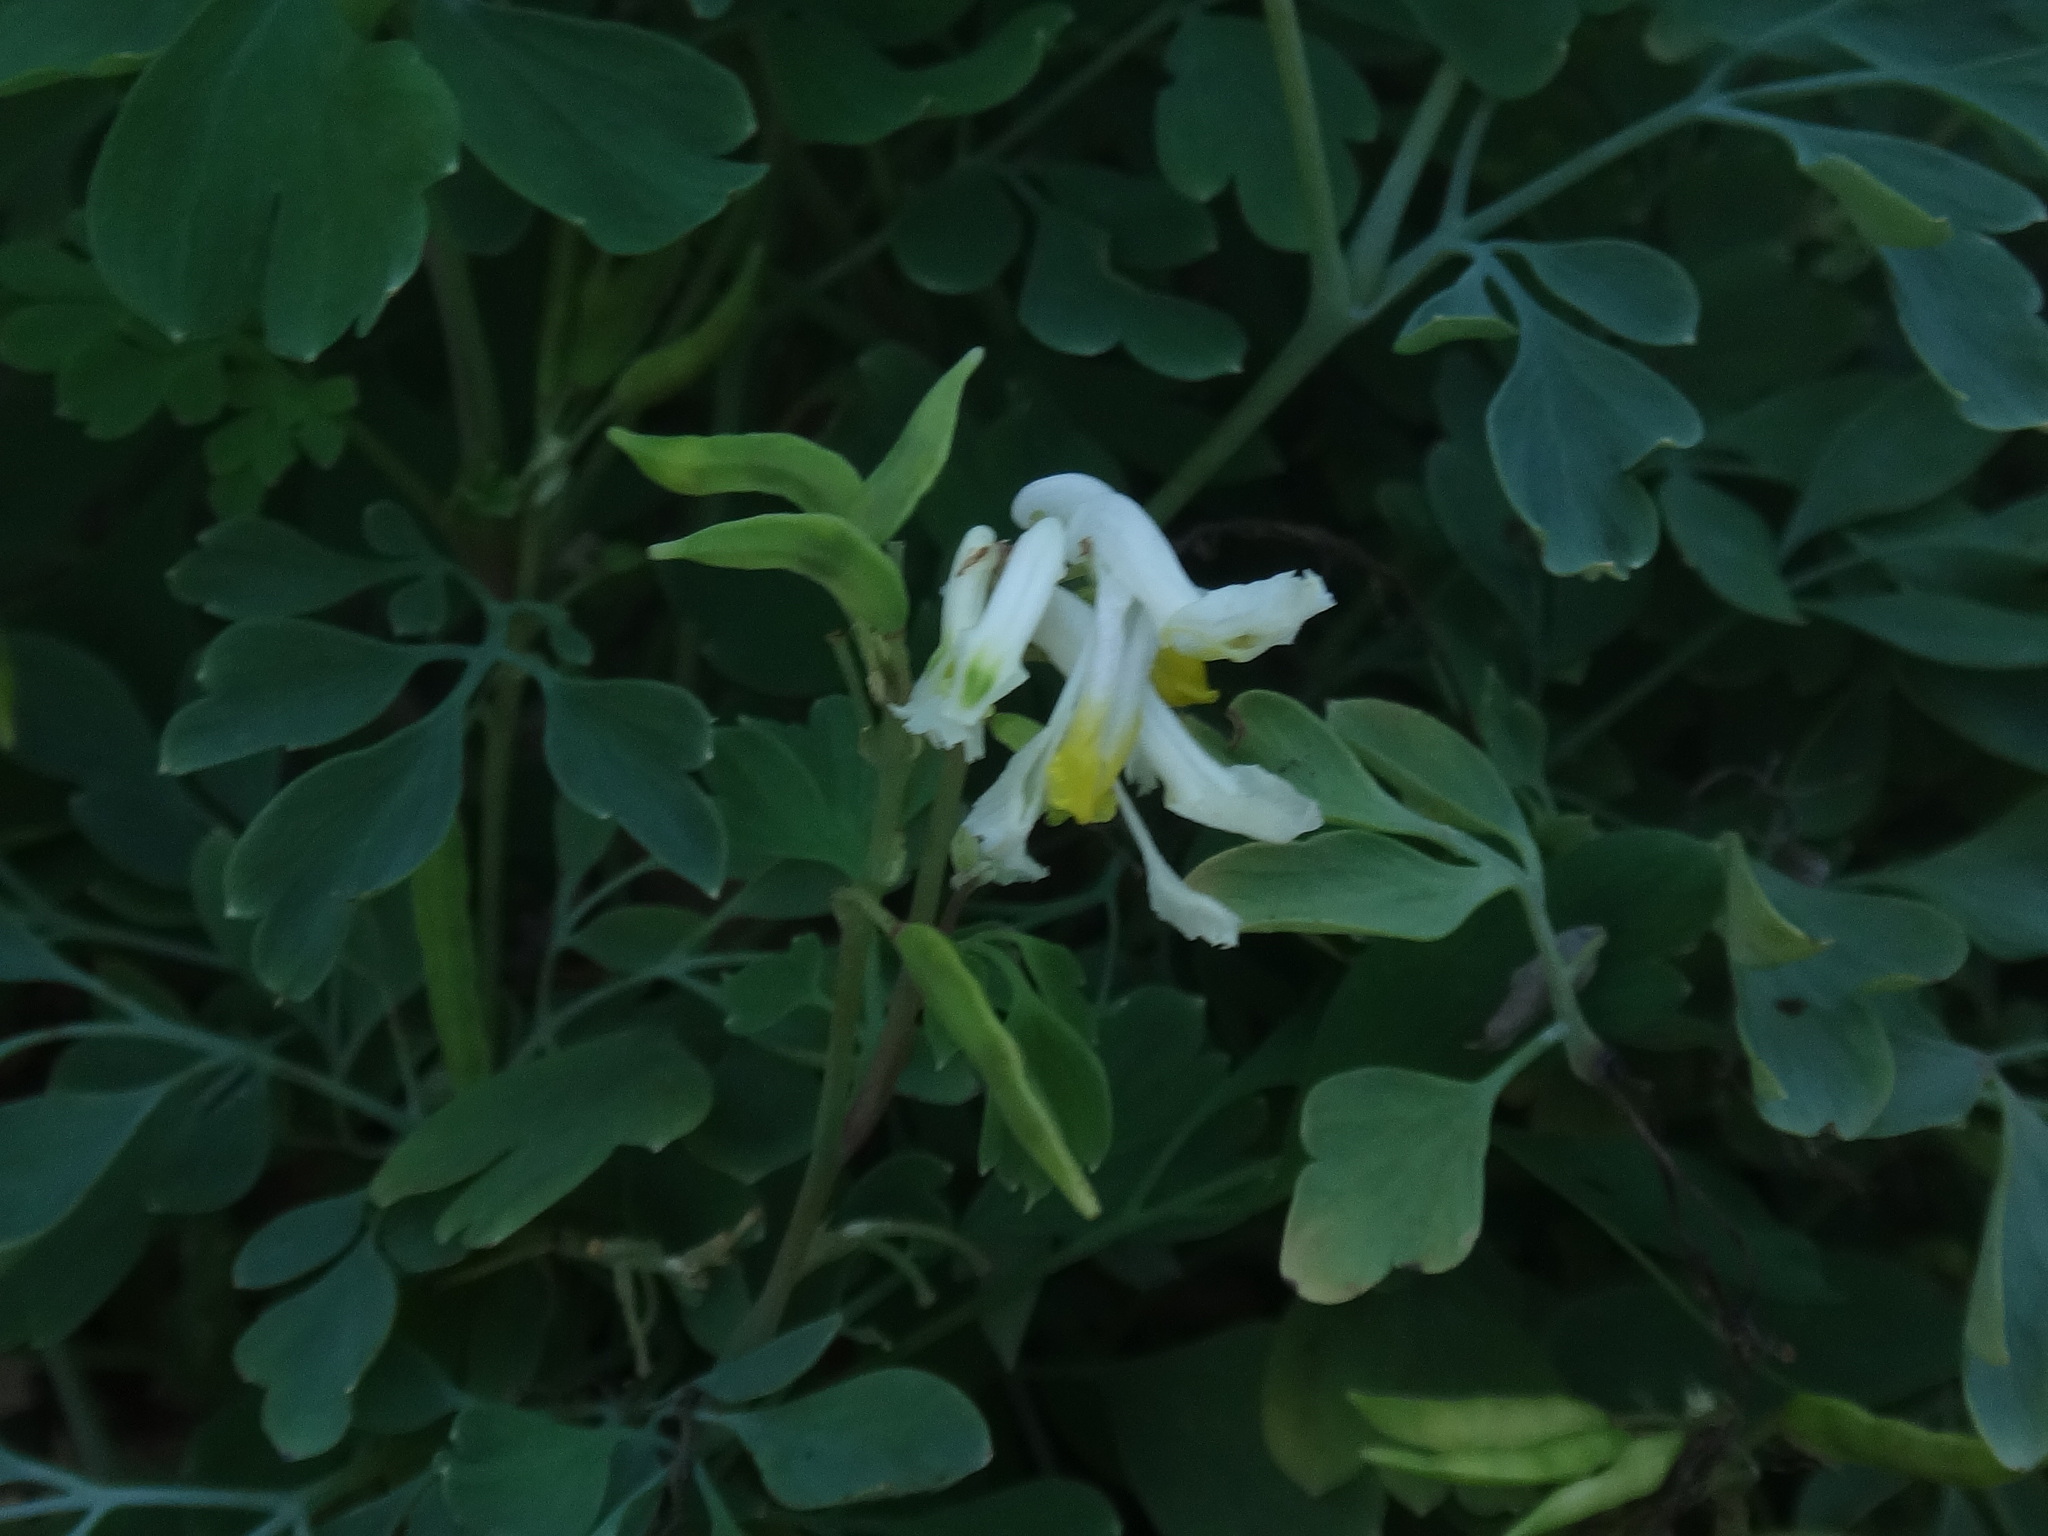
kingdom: Plantae
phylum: Tracheophyta
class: Magnoliopsida
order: Ranunculales
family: Papaveraceae
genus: Pseudofumaria
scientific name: Pseudofumaria alba
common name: Pale corydalis
